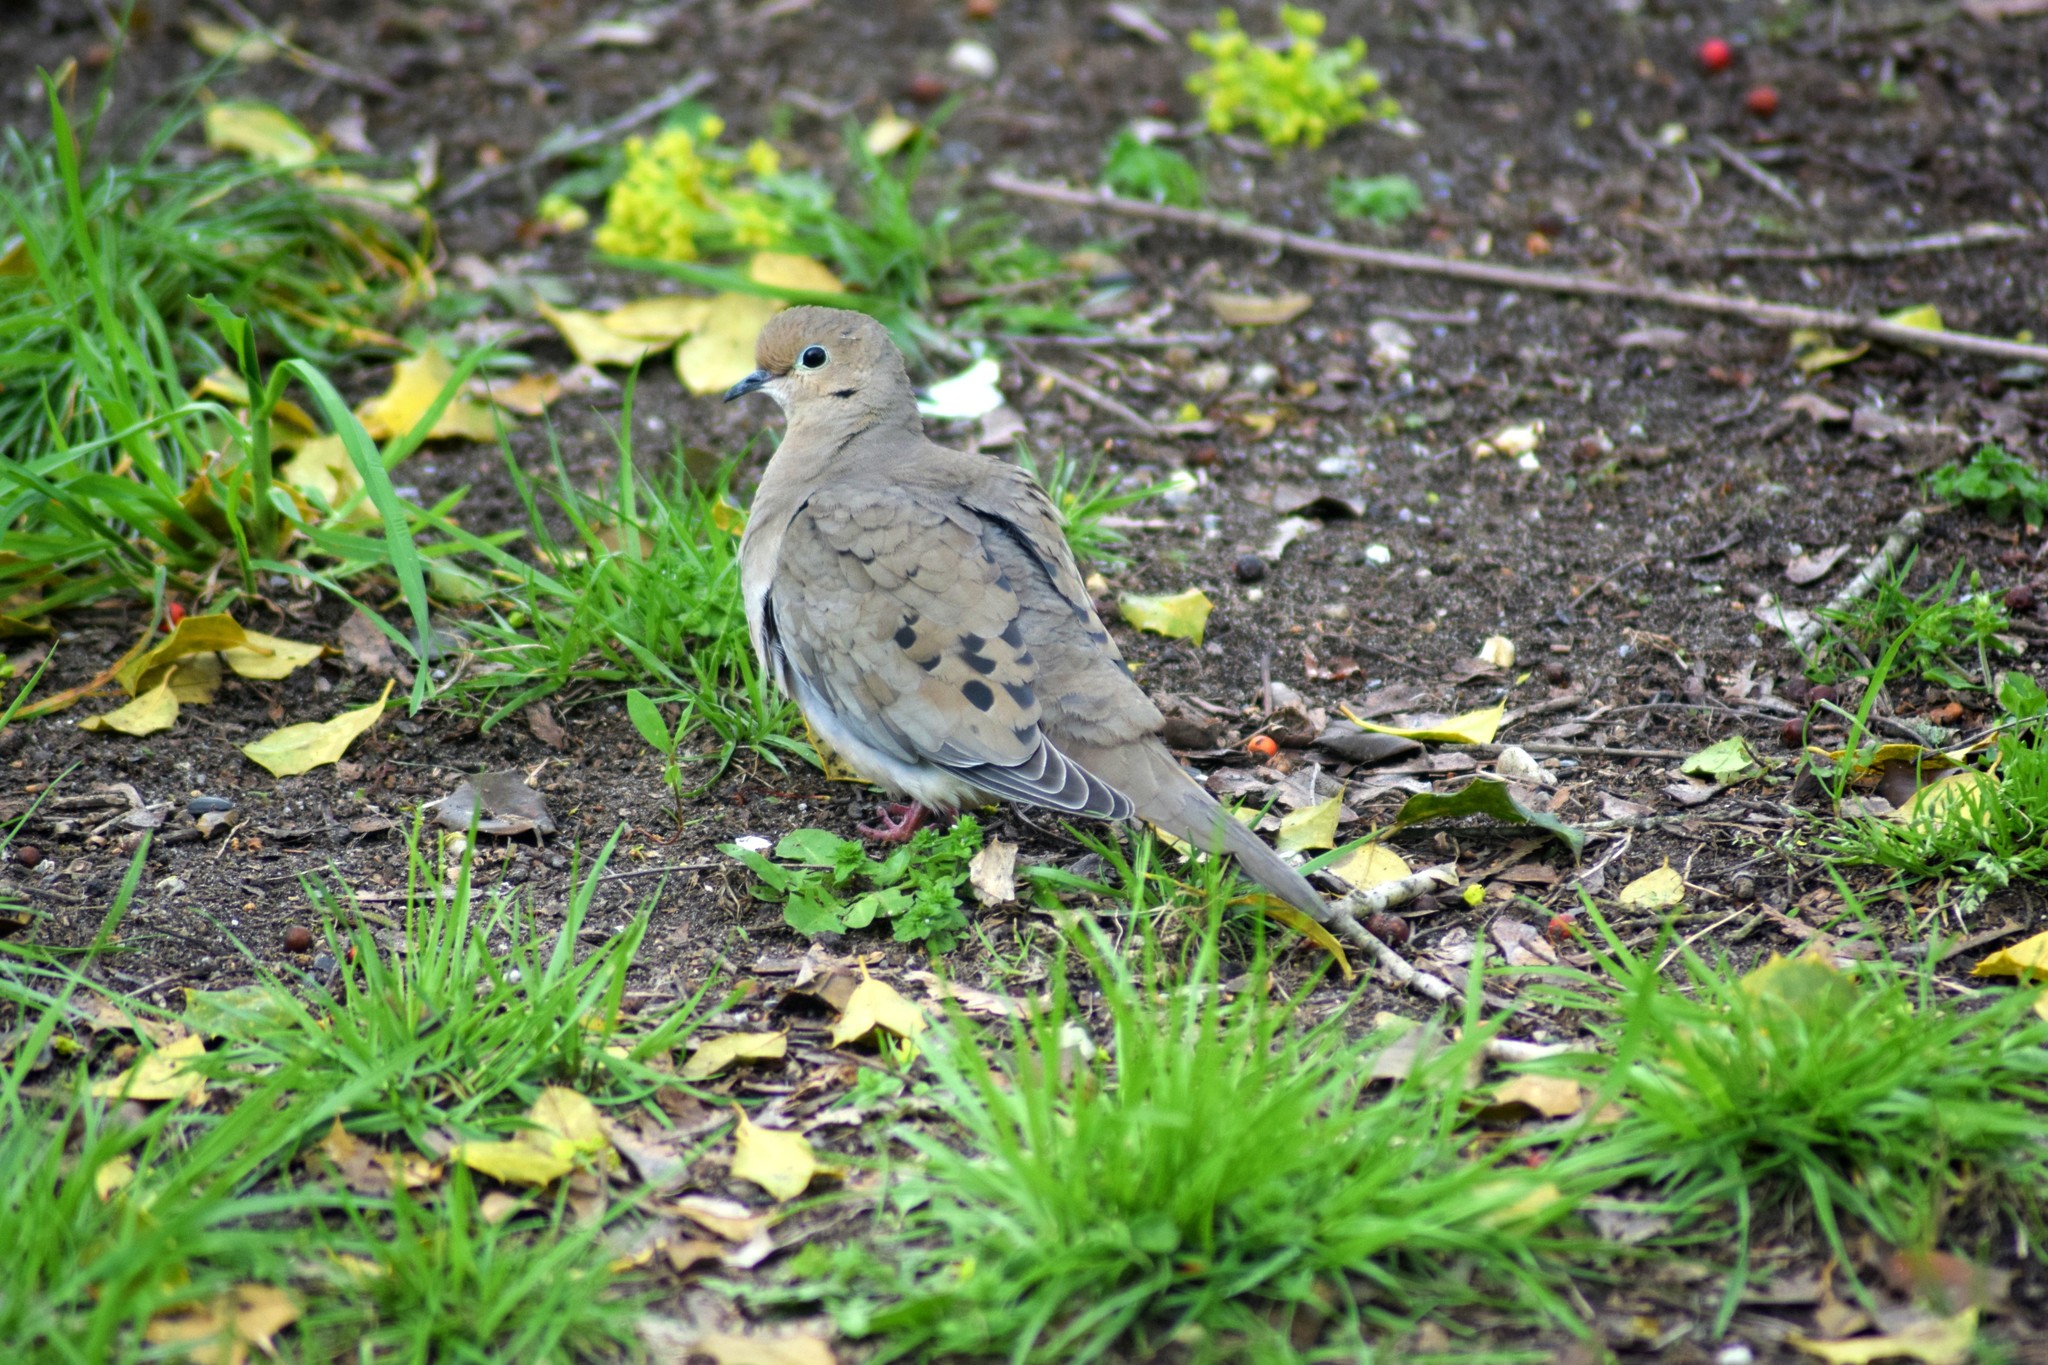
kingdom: Animalia
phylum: Chordata
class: Aves
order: Columbiformes
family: Columbidae
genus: Zenaida
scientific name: Zenaida macroura
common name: Mourning dove
